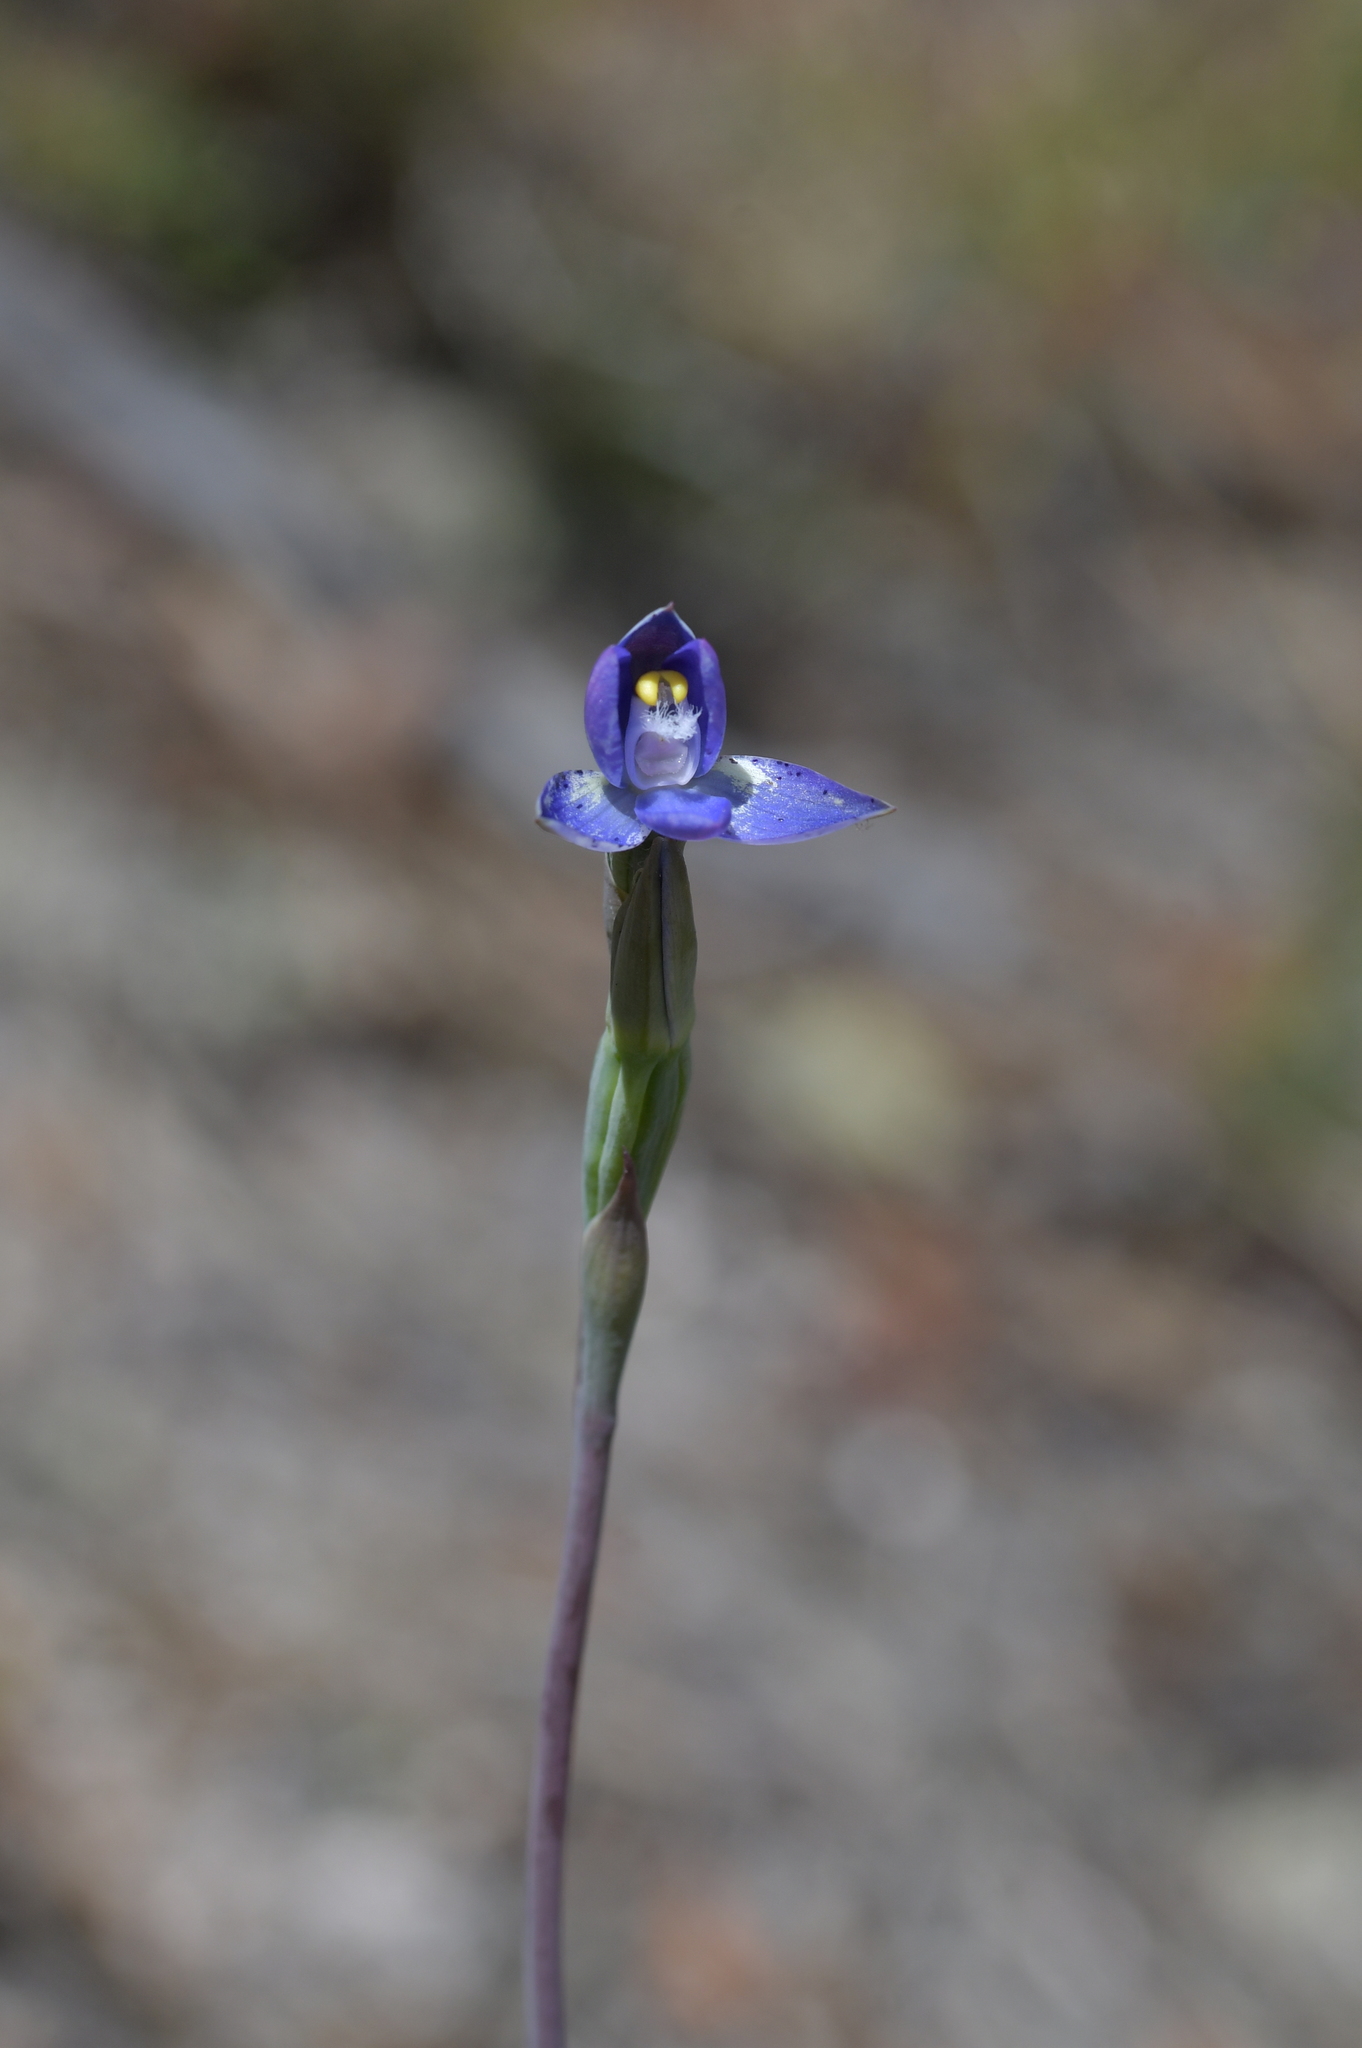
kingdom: Plantae
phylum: Tracheophyta
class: Liliopsida
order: Asparagales
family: Orchidaceae
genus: Thelymitra
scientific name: Thelymitra pauciflora
